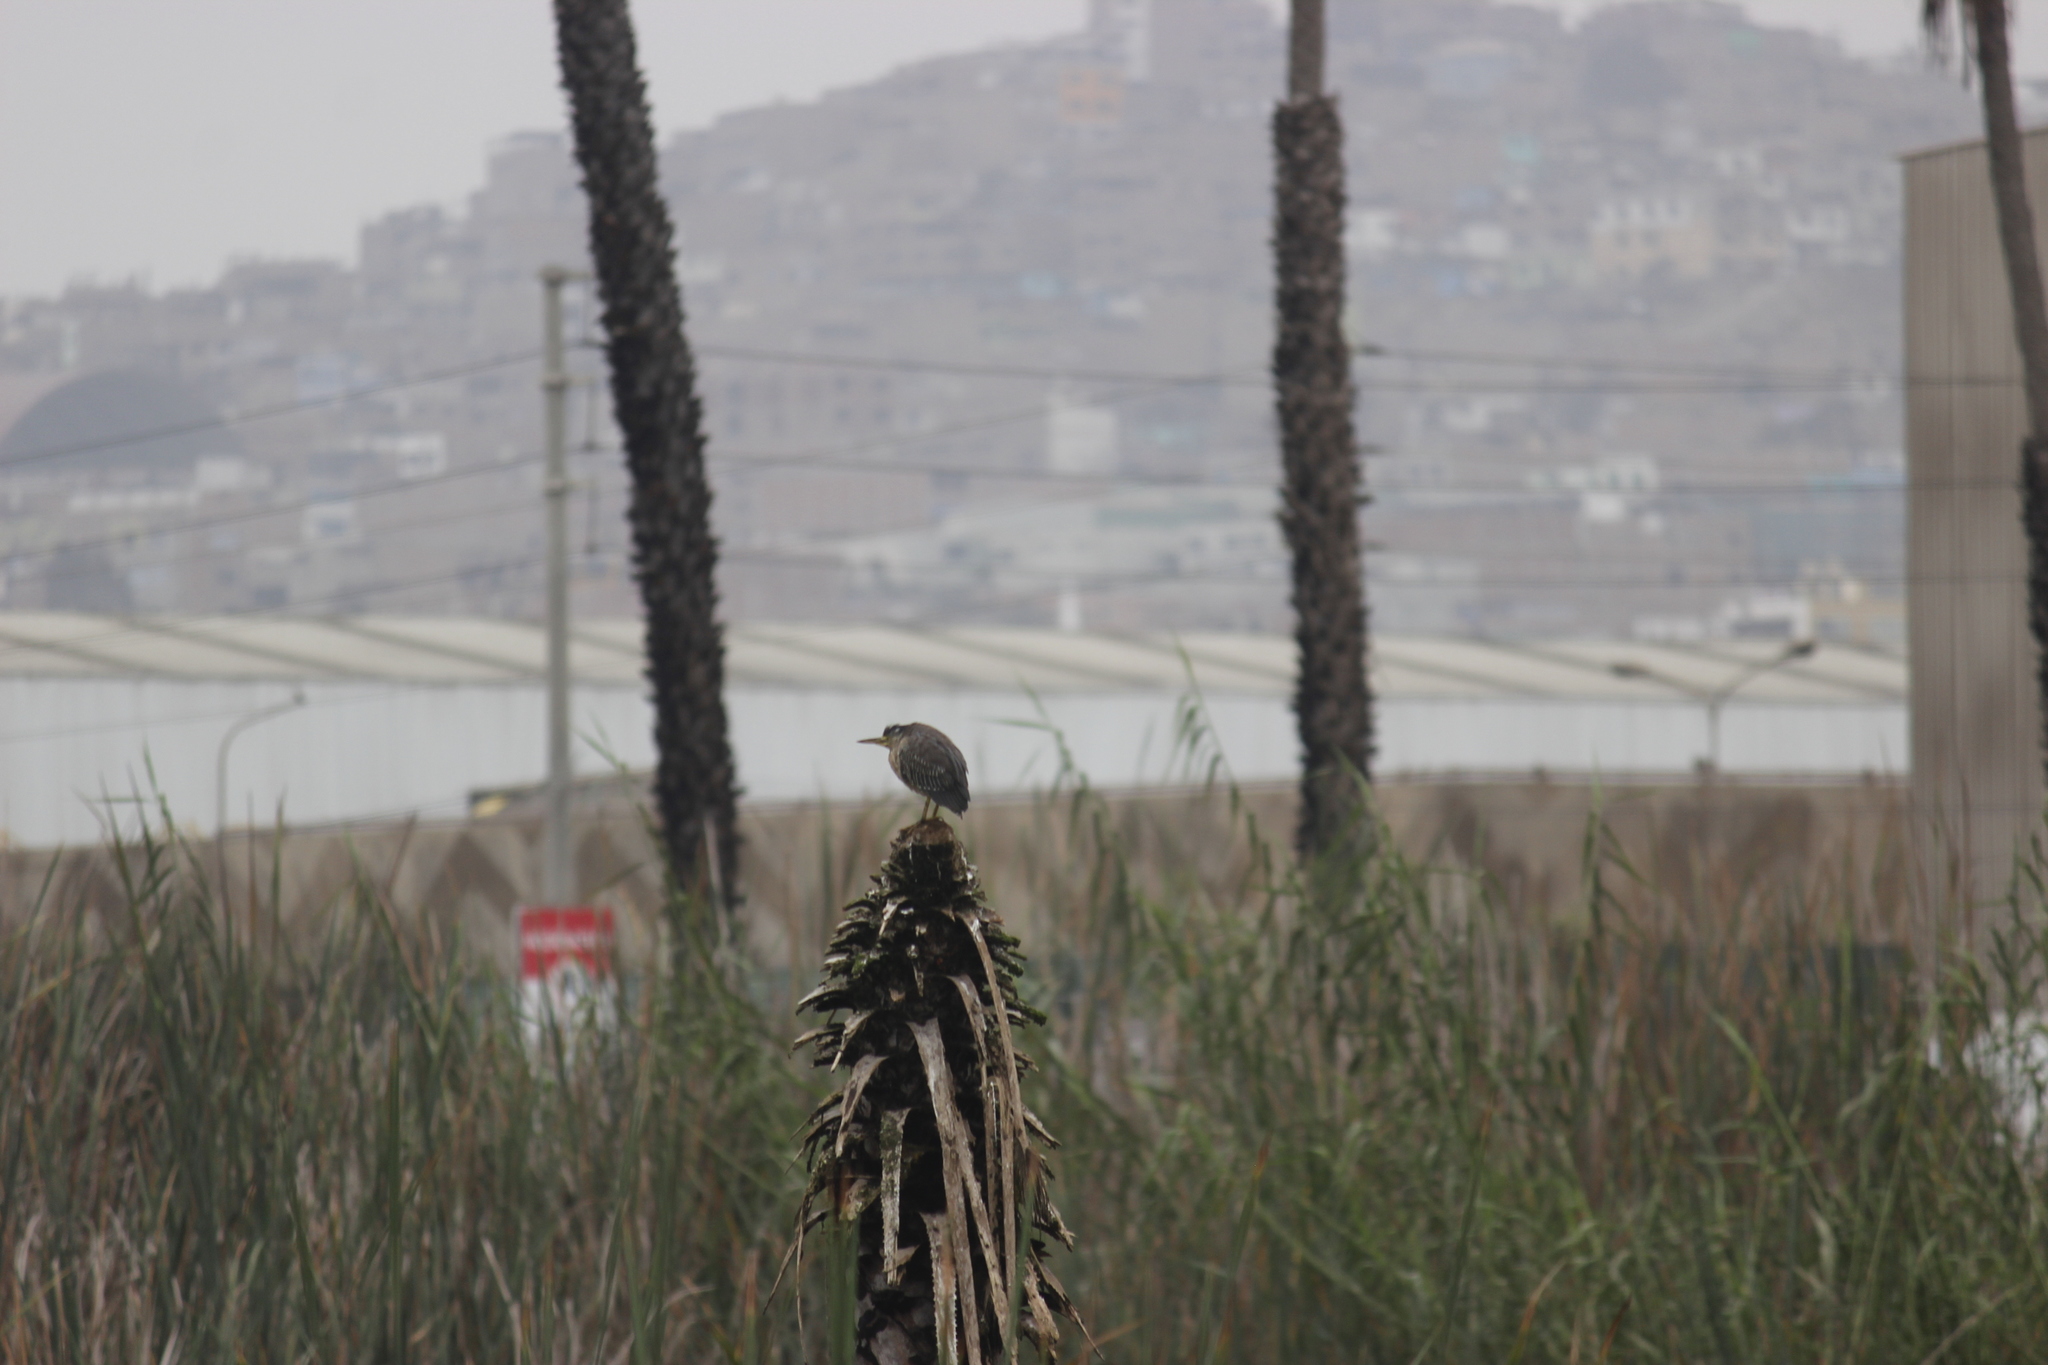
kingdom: Animalia
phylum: Chordata
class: Aves
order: Pelecaniformes
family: Ardeidae
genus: Butorides
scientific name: Butorides striata
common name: Striated heron
